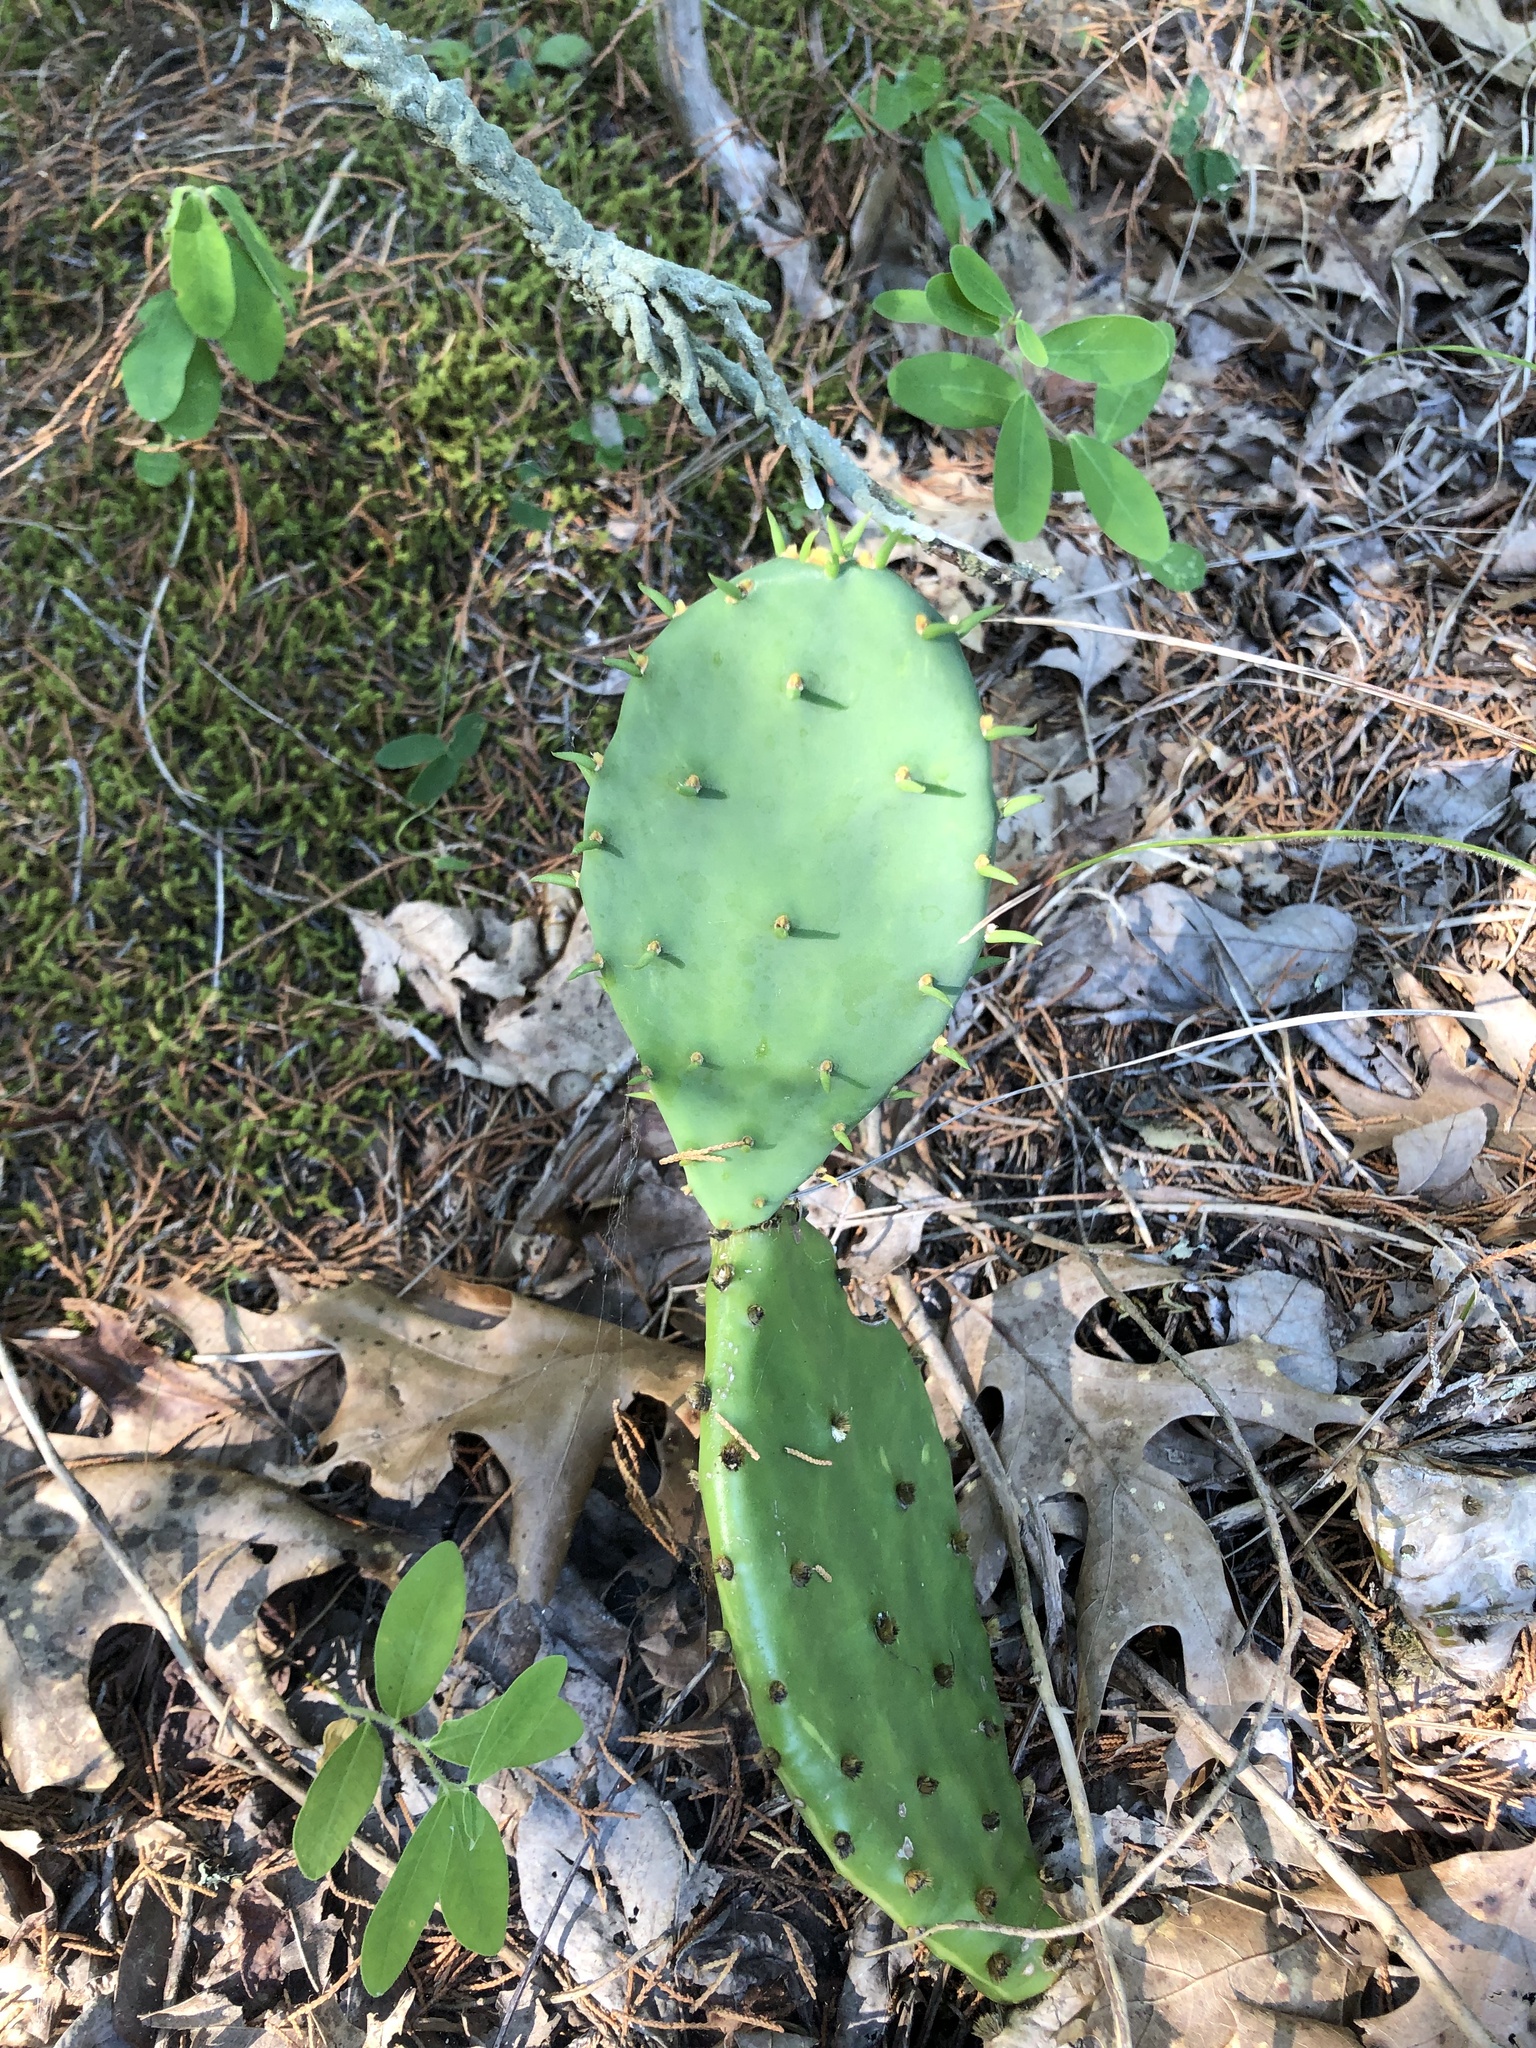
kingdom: Plantae
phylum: Tracheophyta
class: Magnoliopsida
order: Caryophyllales
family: Cactaceae
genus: Opuntia
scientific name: Opuntia humifusa
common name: Eastern prickly-pear
